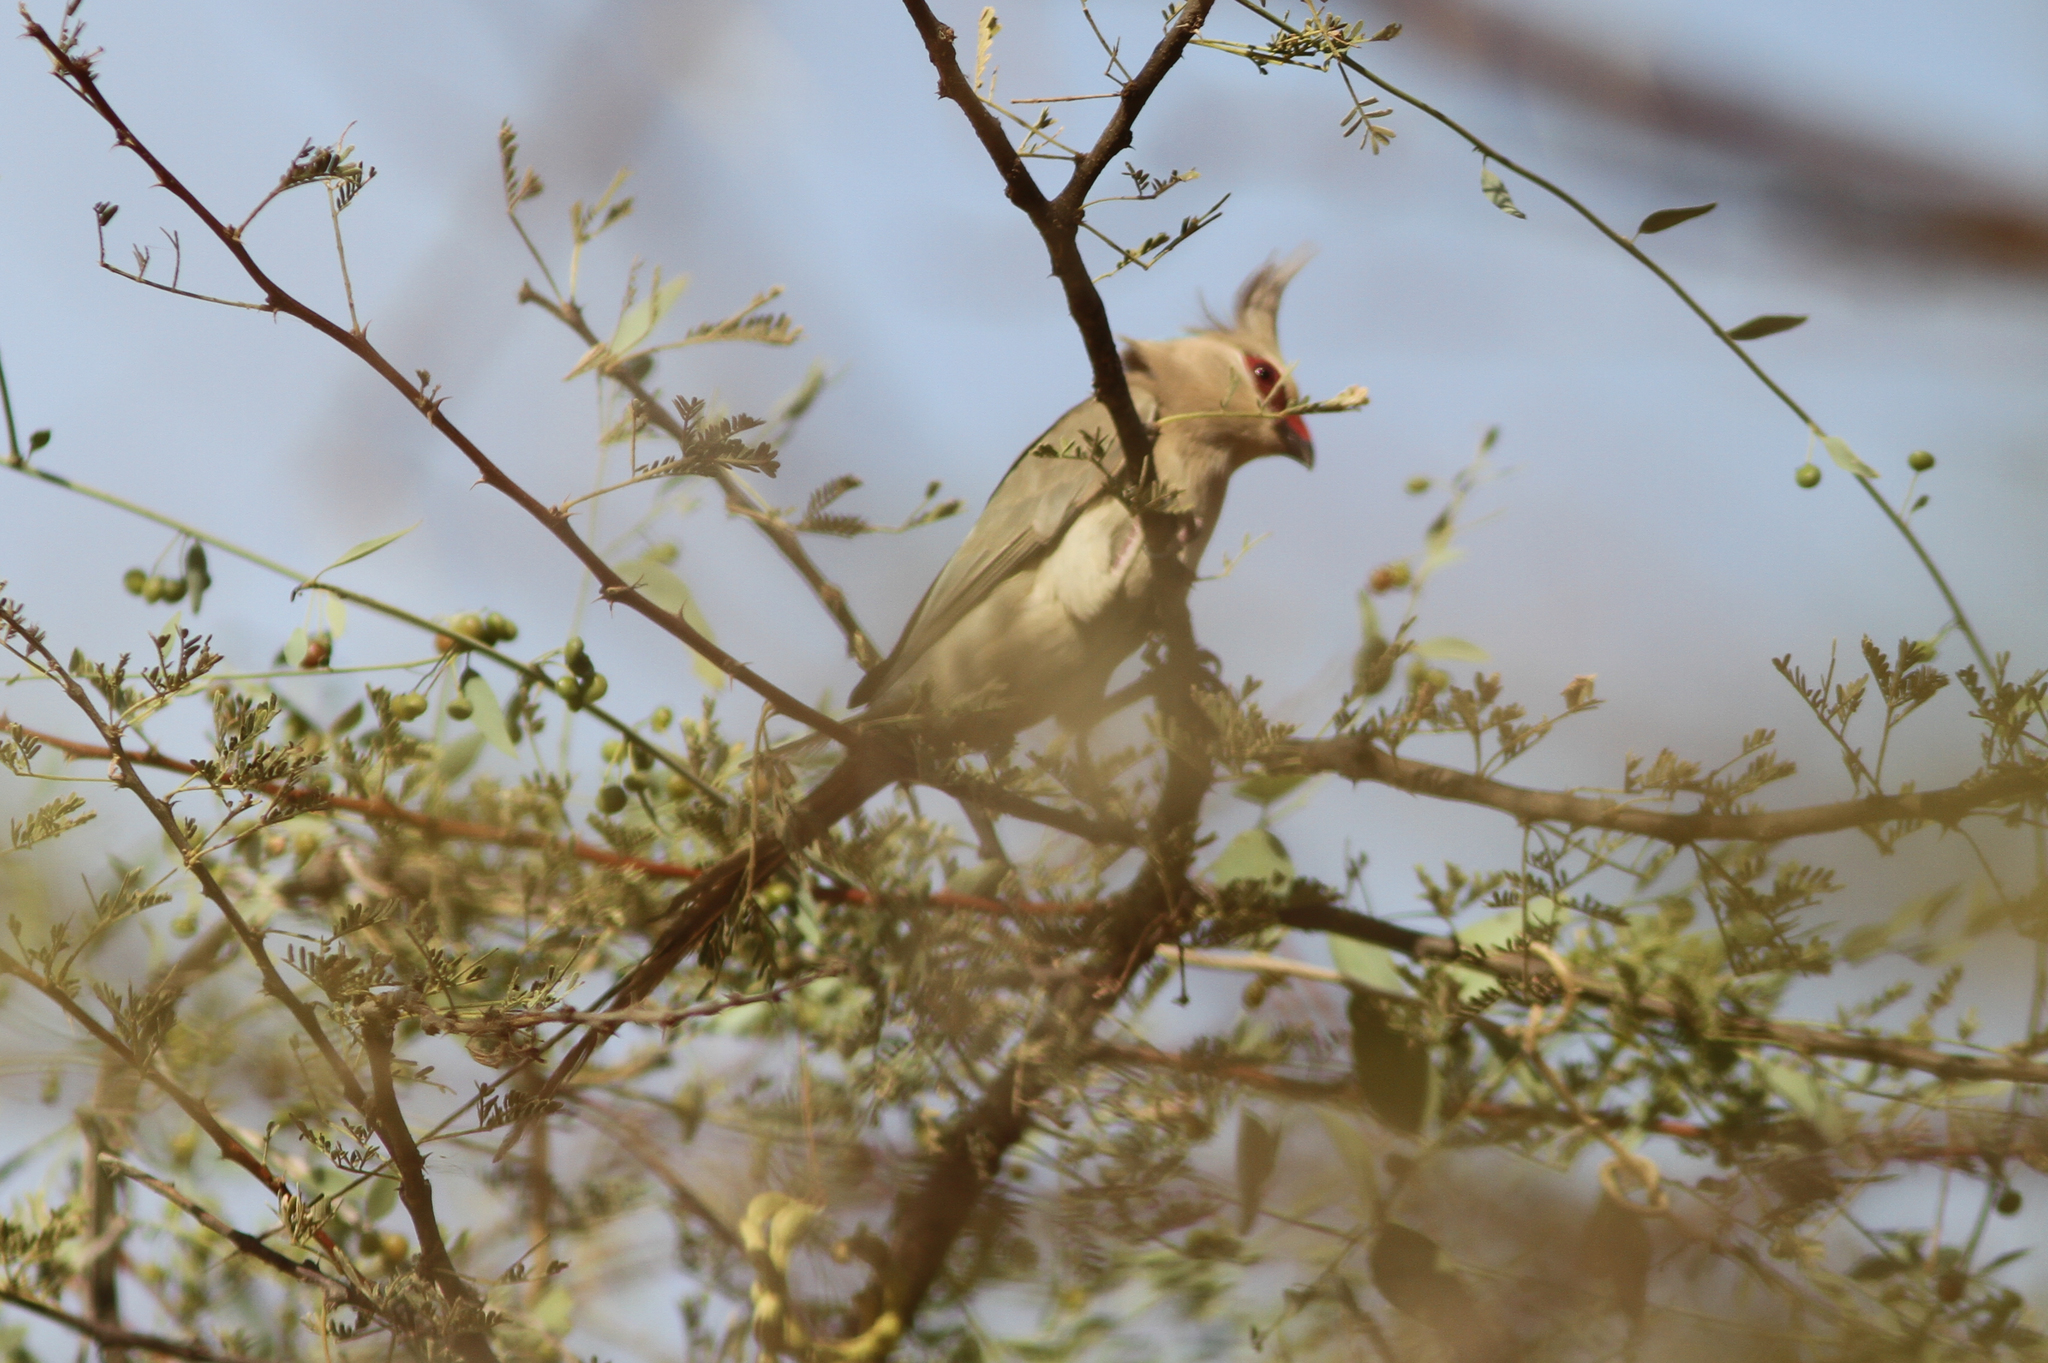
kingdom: Animalia
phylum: Chordata
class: Aves
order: Coliiformes
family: Coliidae
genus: Urocolius
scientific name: Urocolius macrourus
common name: Blue-naped mousebird
